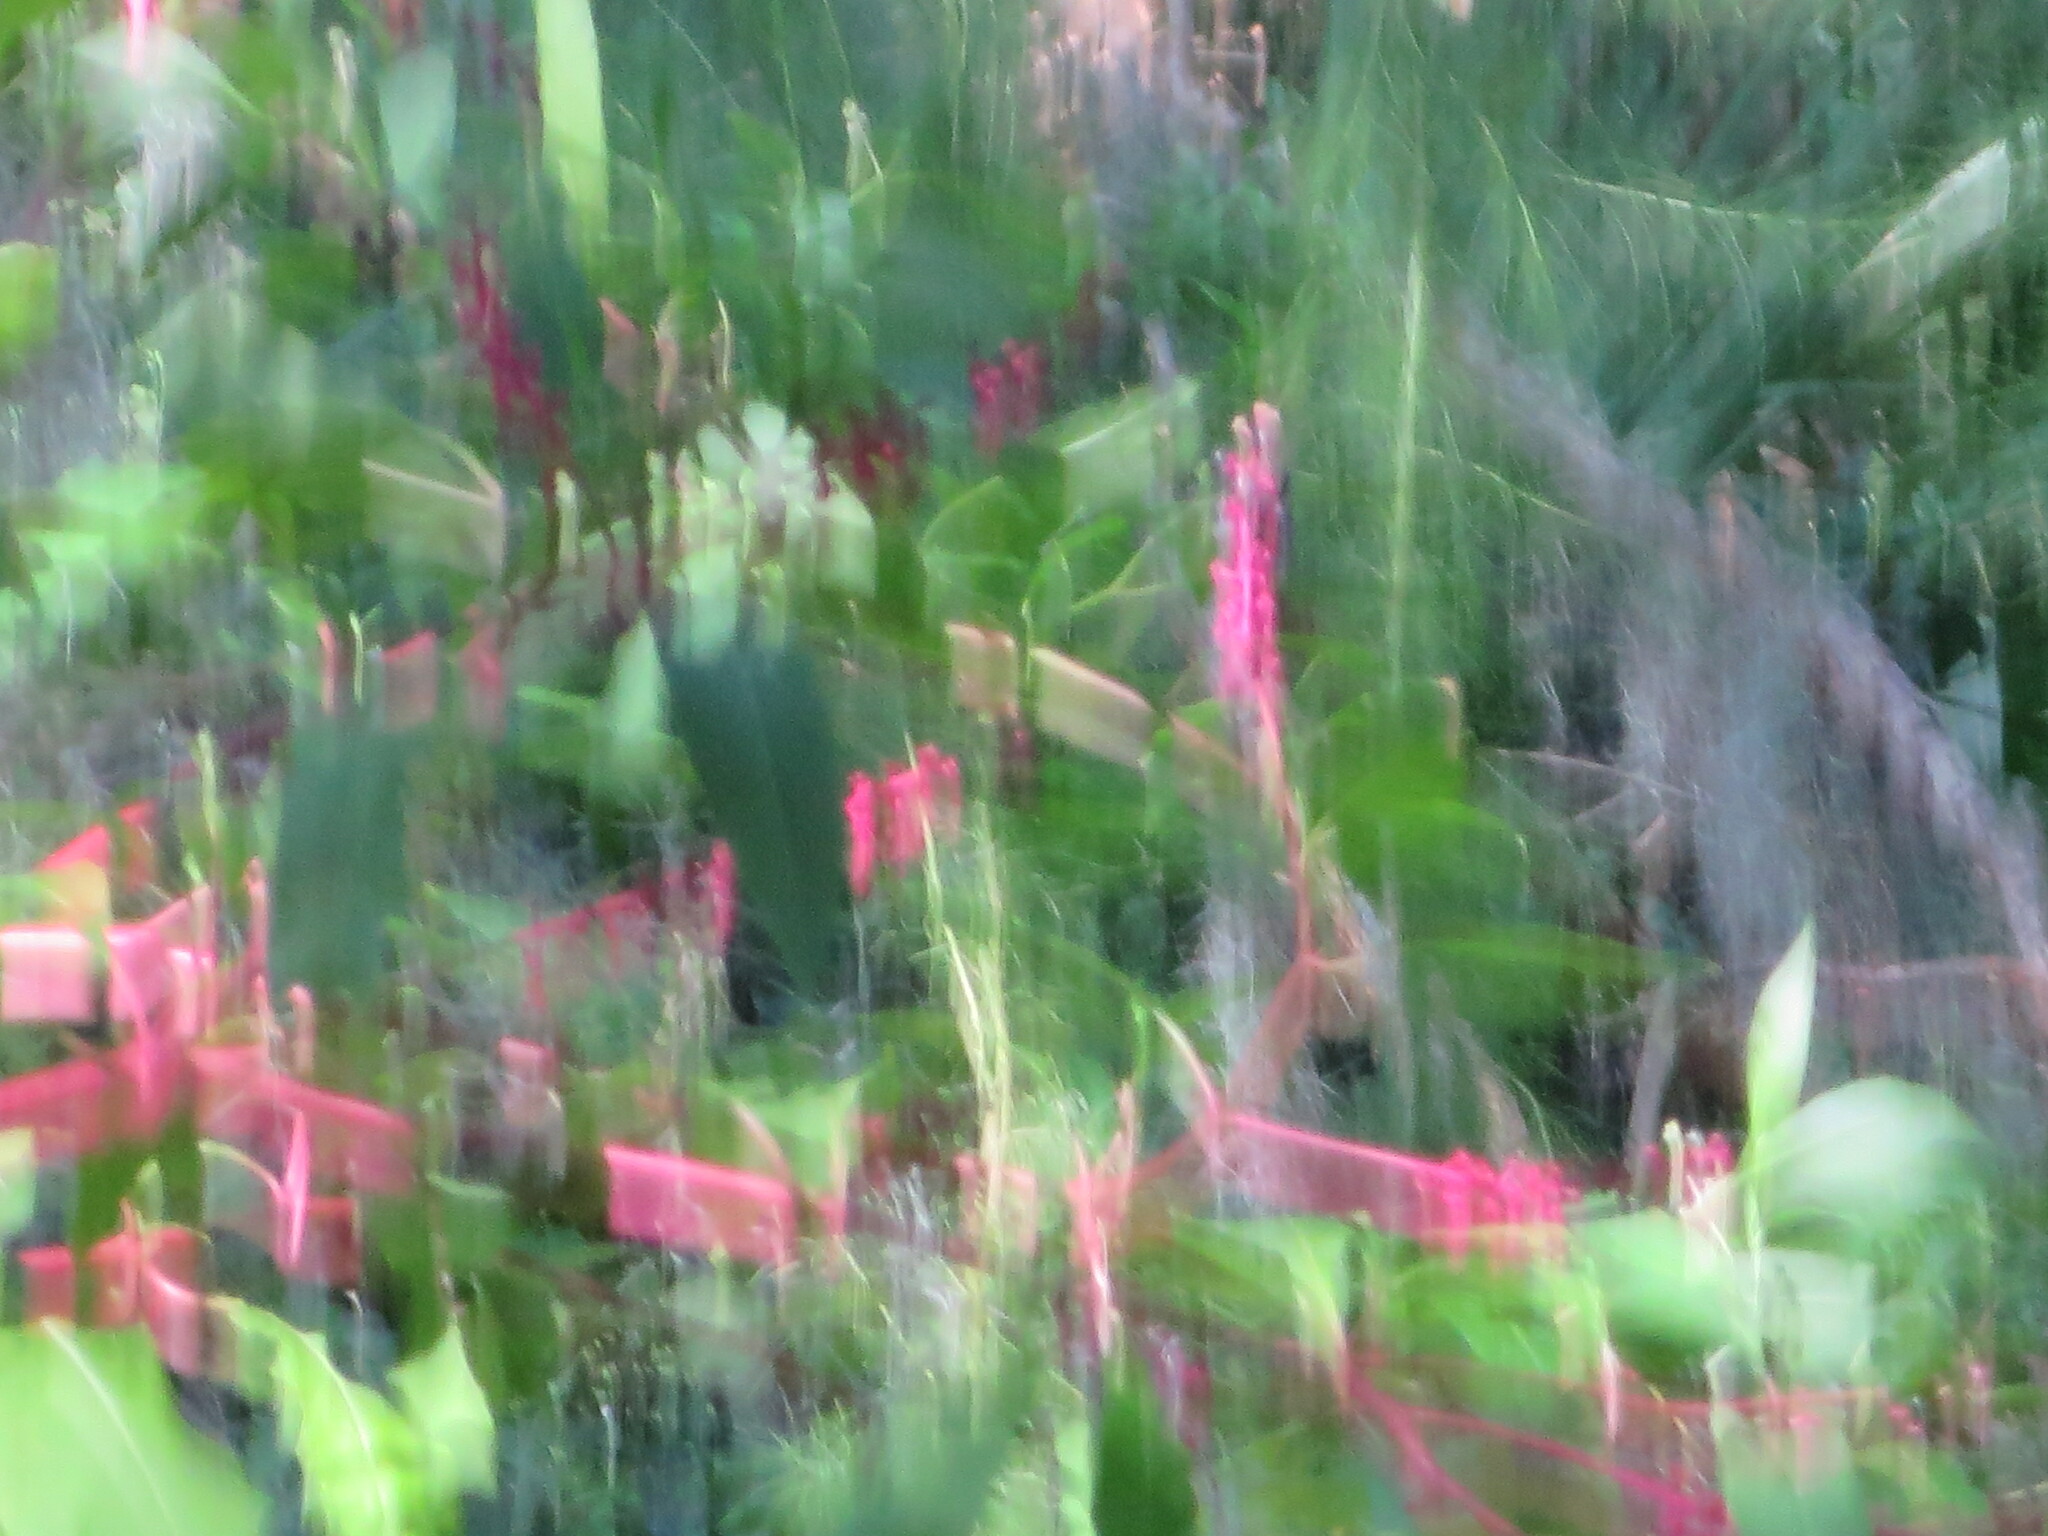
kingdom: Plantae
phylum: Tracheophyta
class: Magnoliopsida
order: Caryophyllales
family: Phytolaccaceae
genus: Phytolacca
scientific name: Phytolacca americana
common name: American pokeweed
